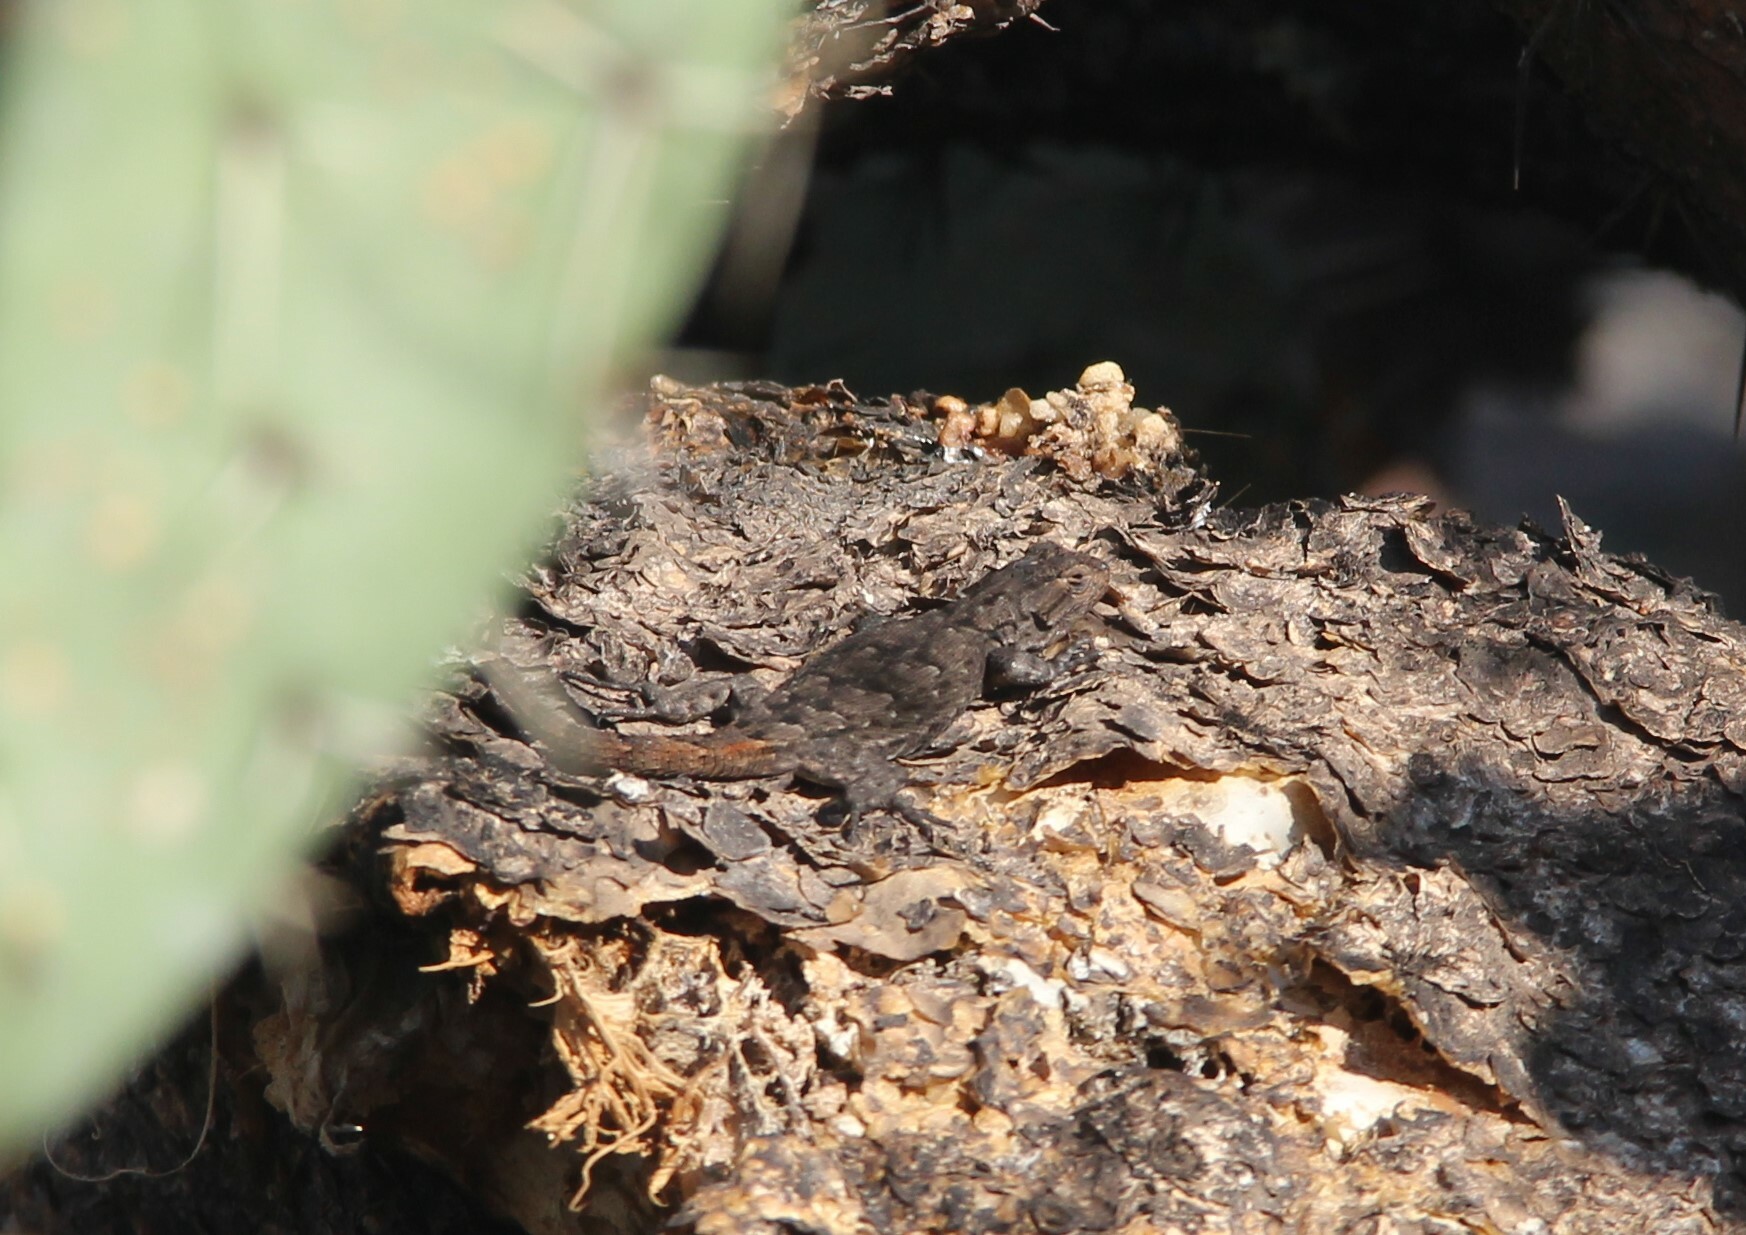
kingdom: Animalia
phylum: Chordata
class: Squamata
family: Phrynosomatidae
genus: Sceloporus
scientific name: Sceloporus grammicus
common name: Mesquite lizard
